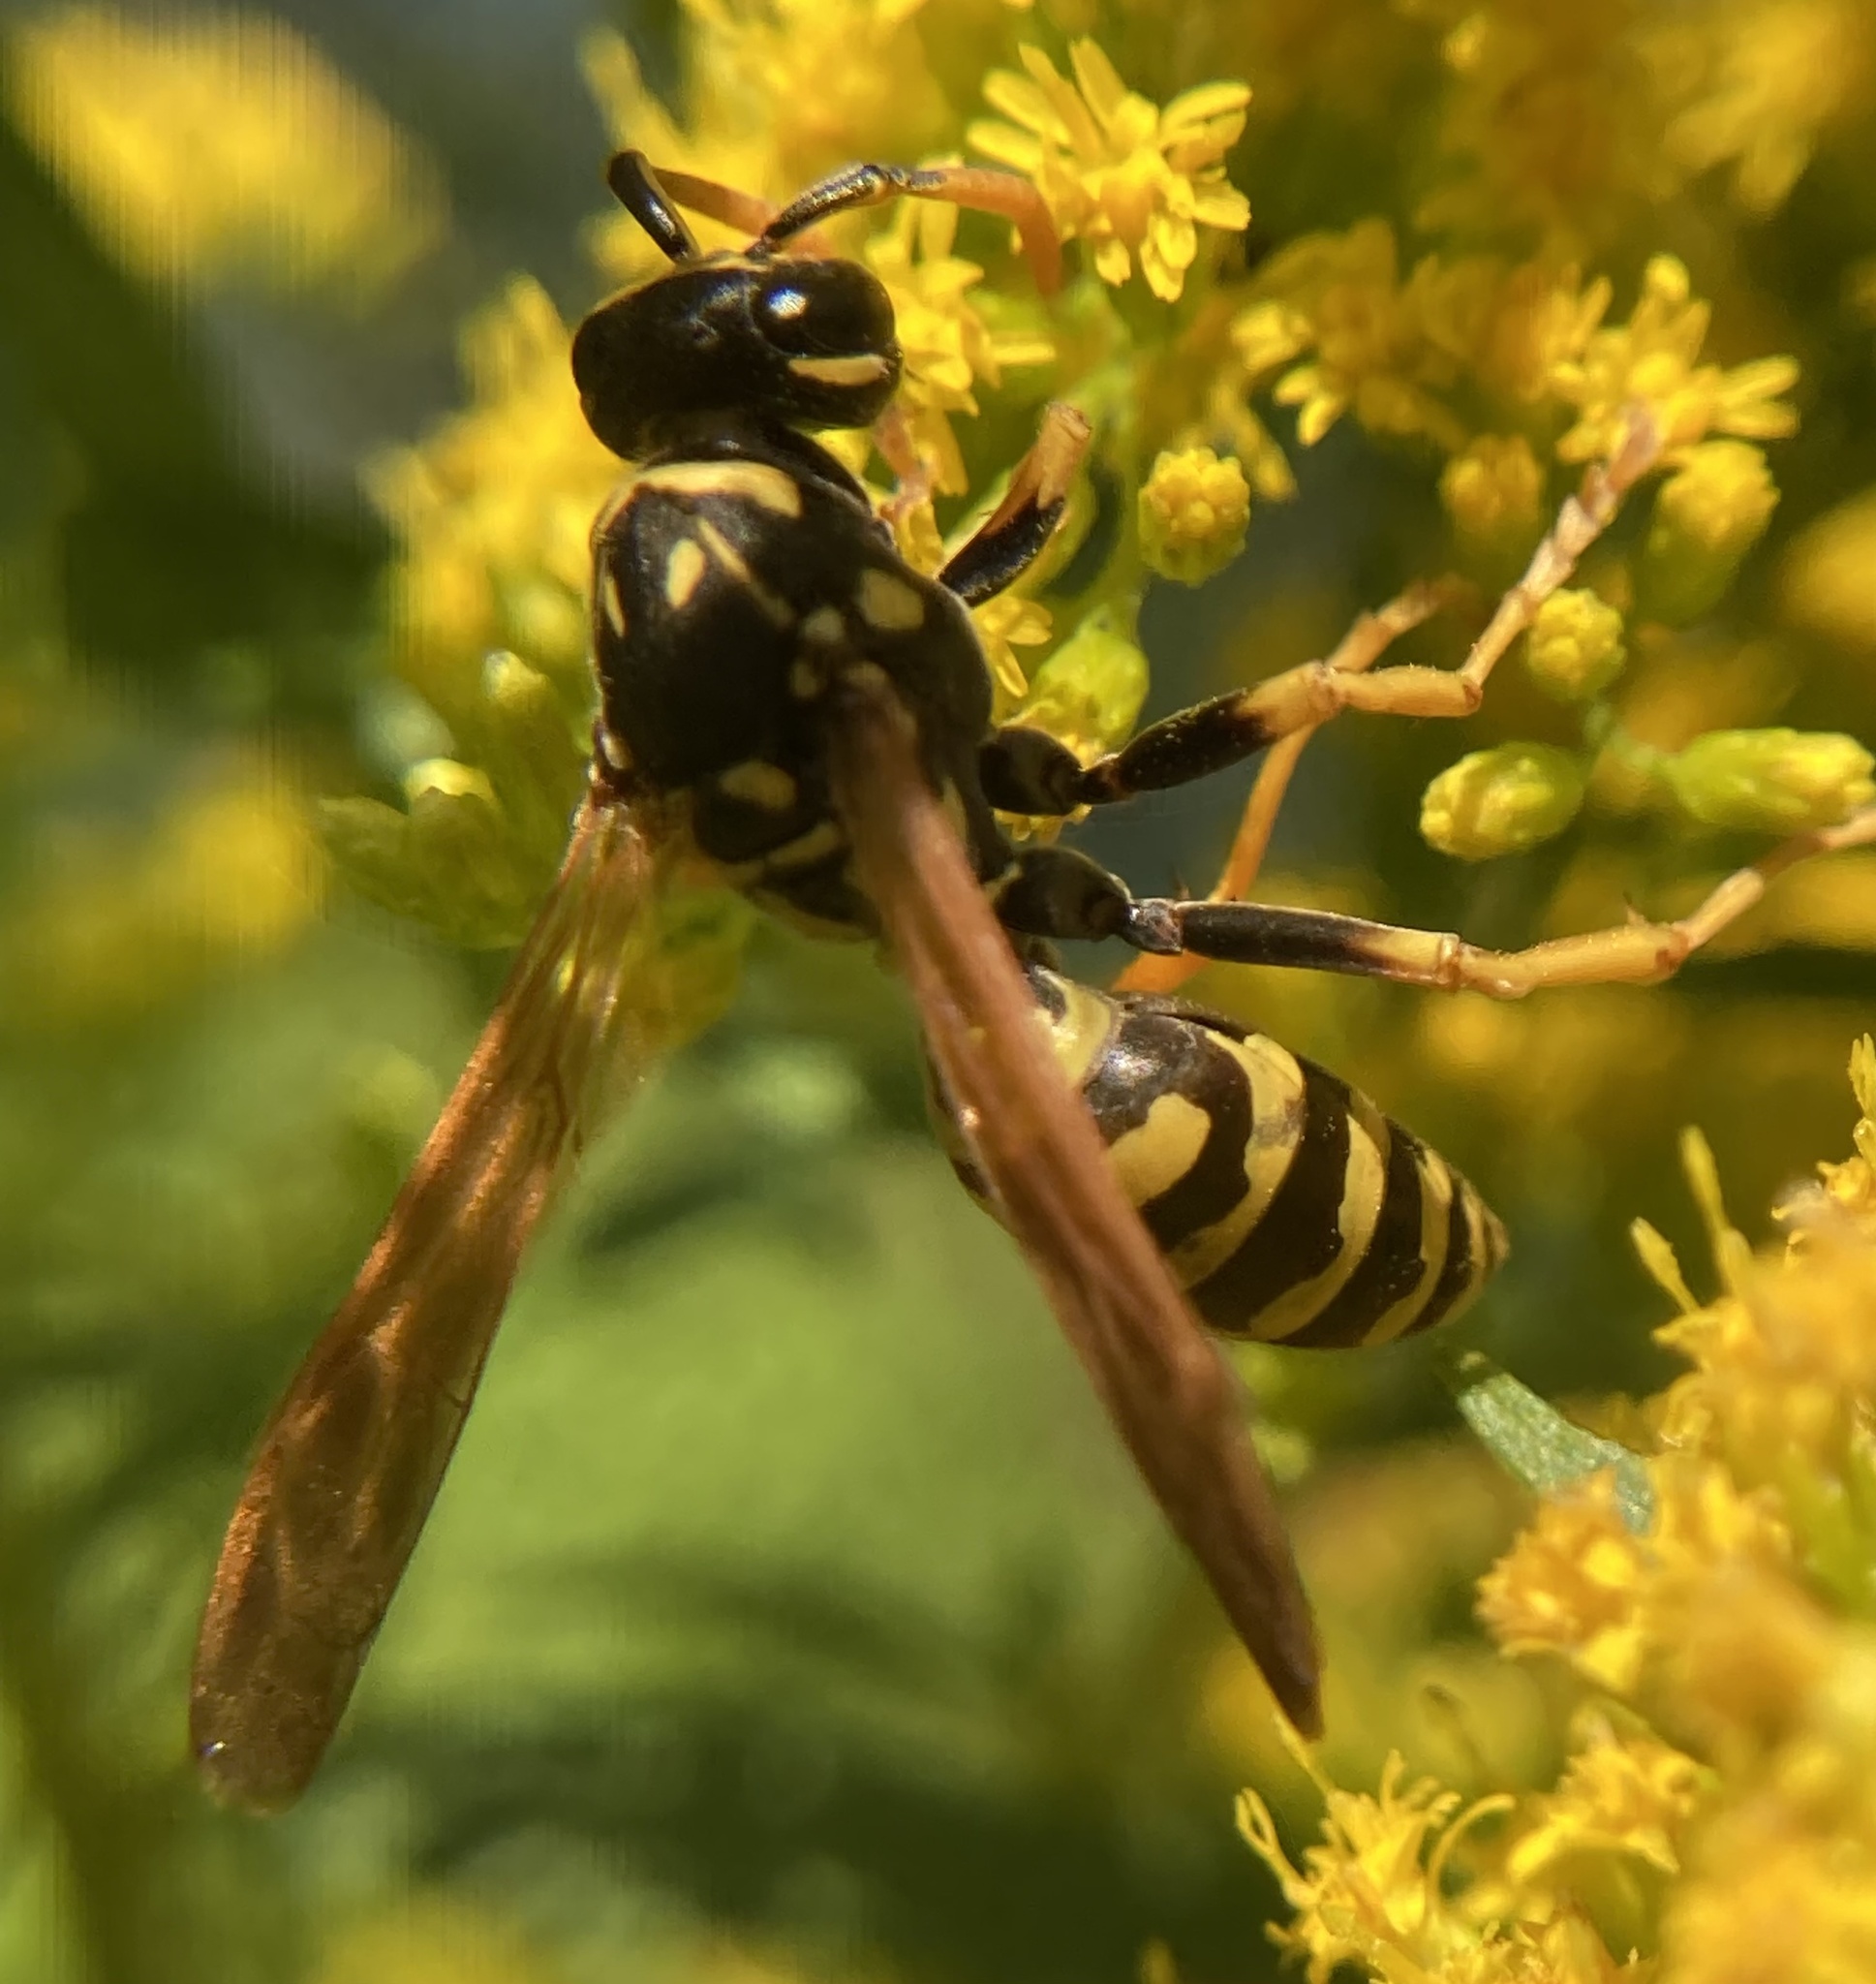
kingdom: Animalia
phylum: Arthropoda
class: Insecta
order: Hymenoptera
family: Eumenidae
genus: Polistes
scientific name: Polistes dominula
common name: Paper wasp
